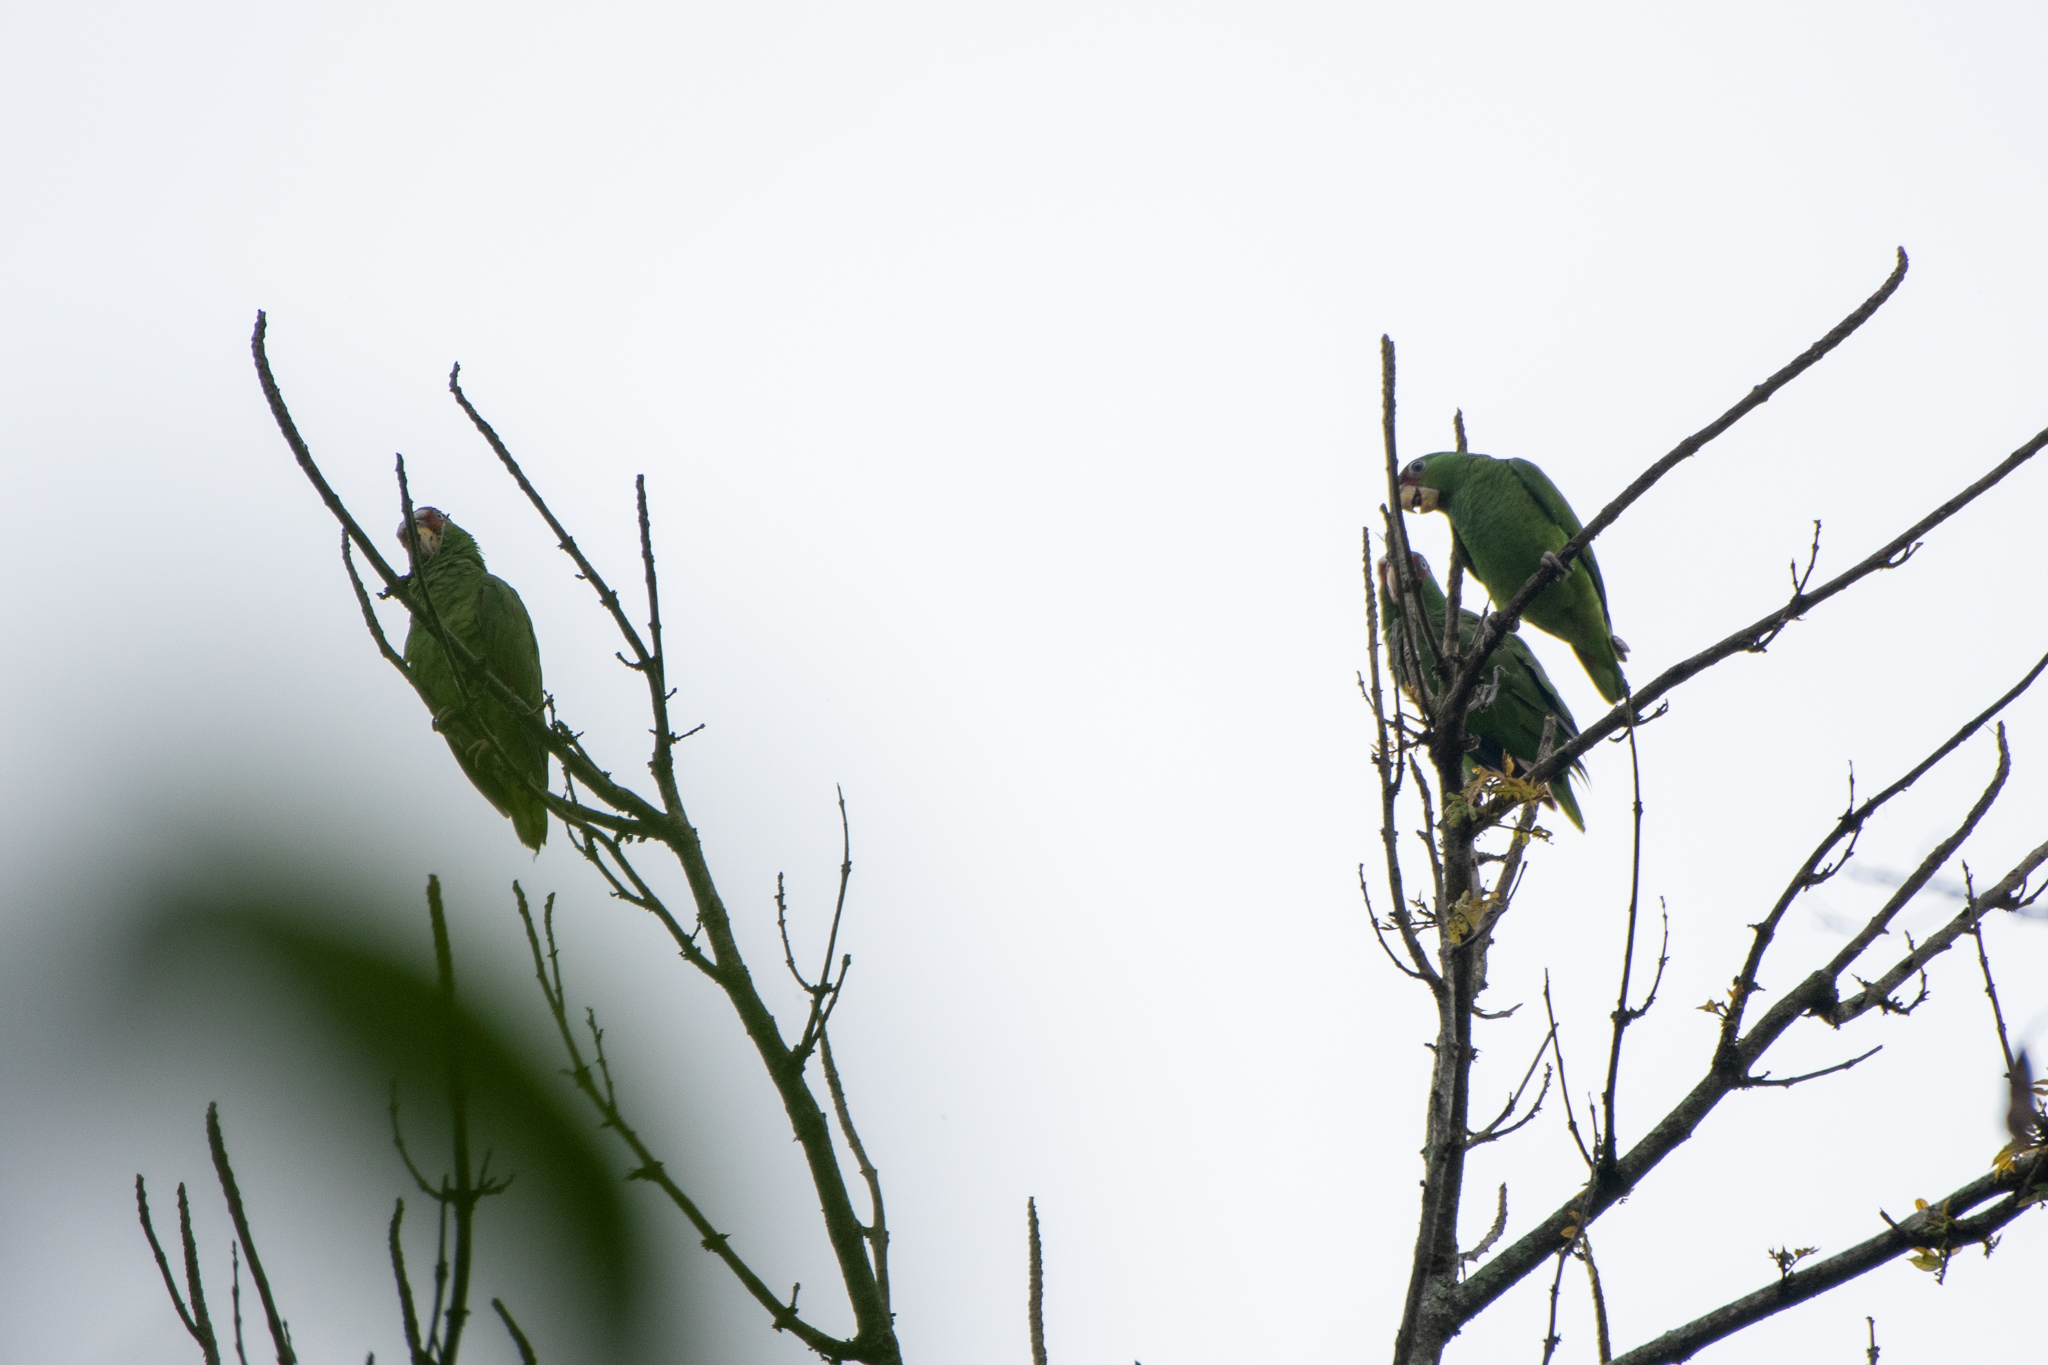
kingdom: Animalia
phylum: Chordata
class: Aves
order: Psittaciformes
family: Psittacidae
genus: Amazona
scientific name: Amazona albifrons
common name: White-fronted amazon
